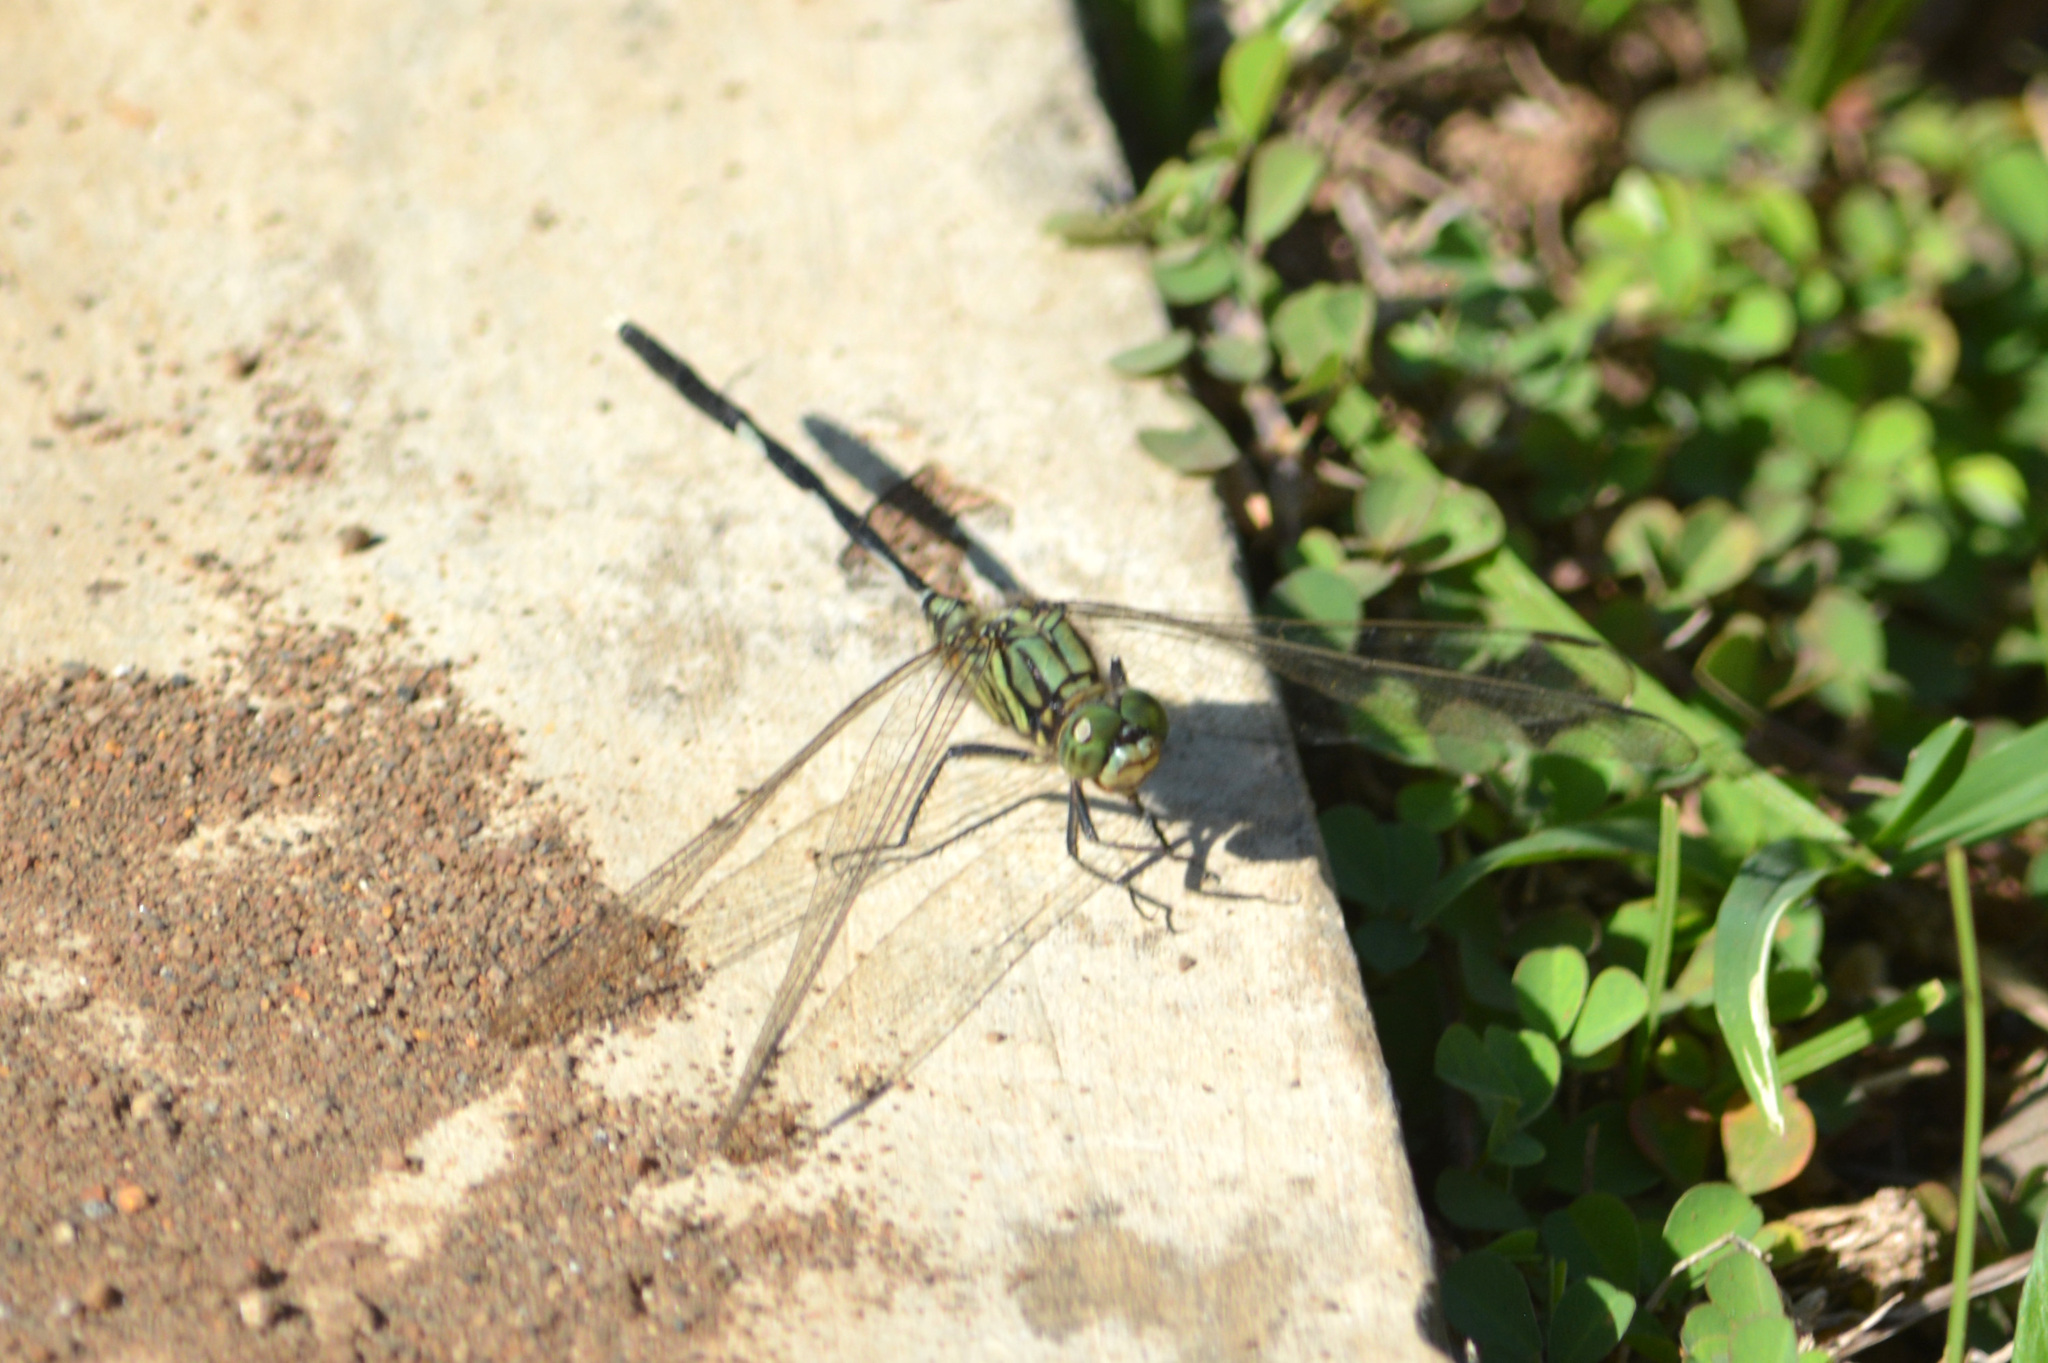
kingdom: Animalia
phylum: Arthropoda
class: Insecta
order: Odonata
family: Libellulidae
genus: Orthetrum
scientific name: Orthetrum sabina
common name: Slender skimmer
